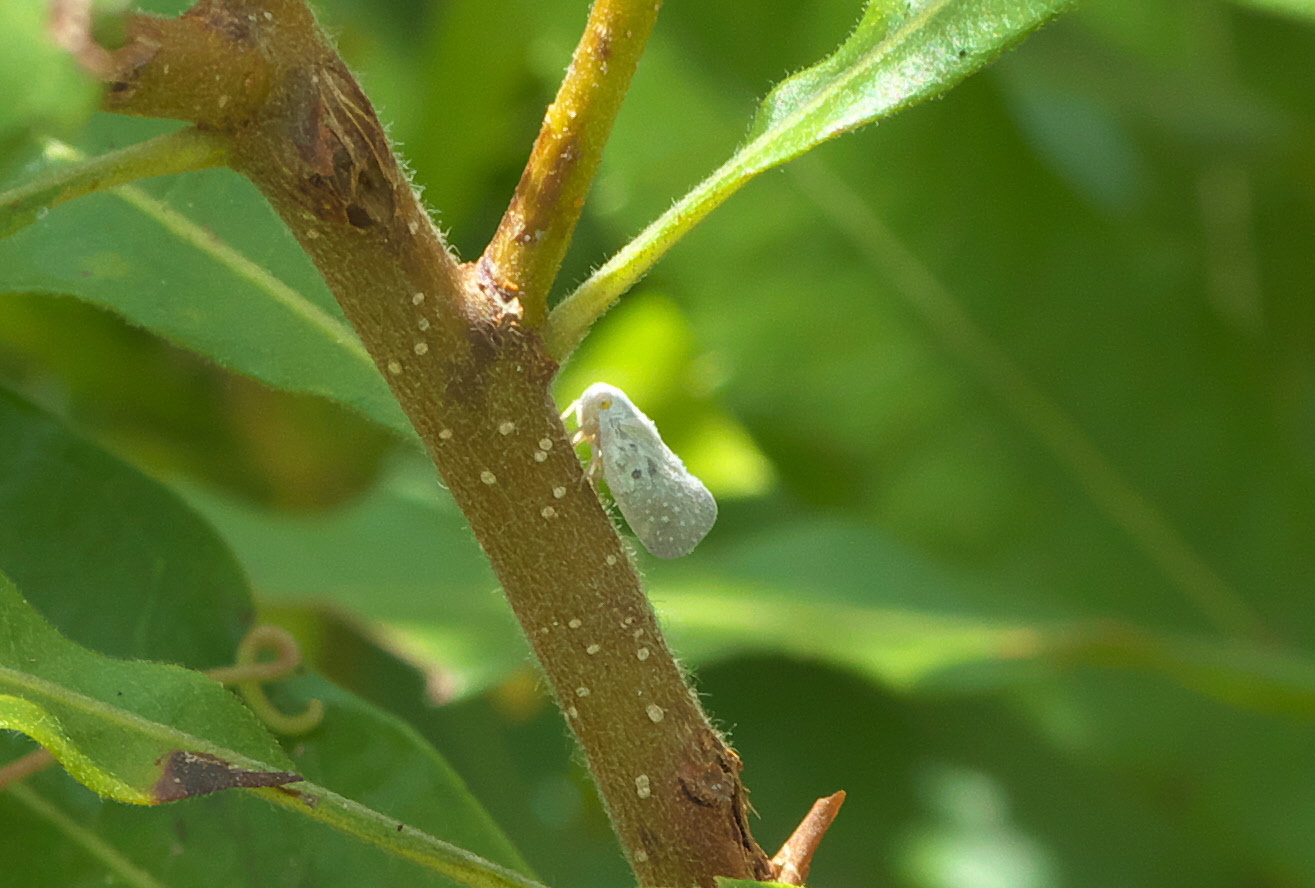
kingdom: Animalia
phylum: Arthropoda
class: Insecta
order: Hemiptera
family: Flatidae
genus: Metcalfa
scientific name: Metcalfa pruinosa
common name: Citrus flatid planthopper
